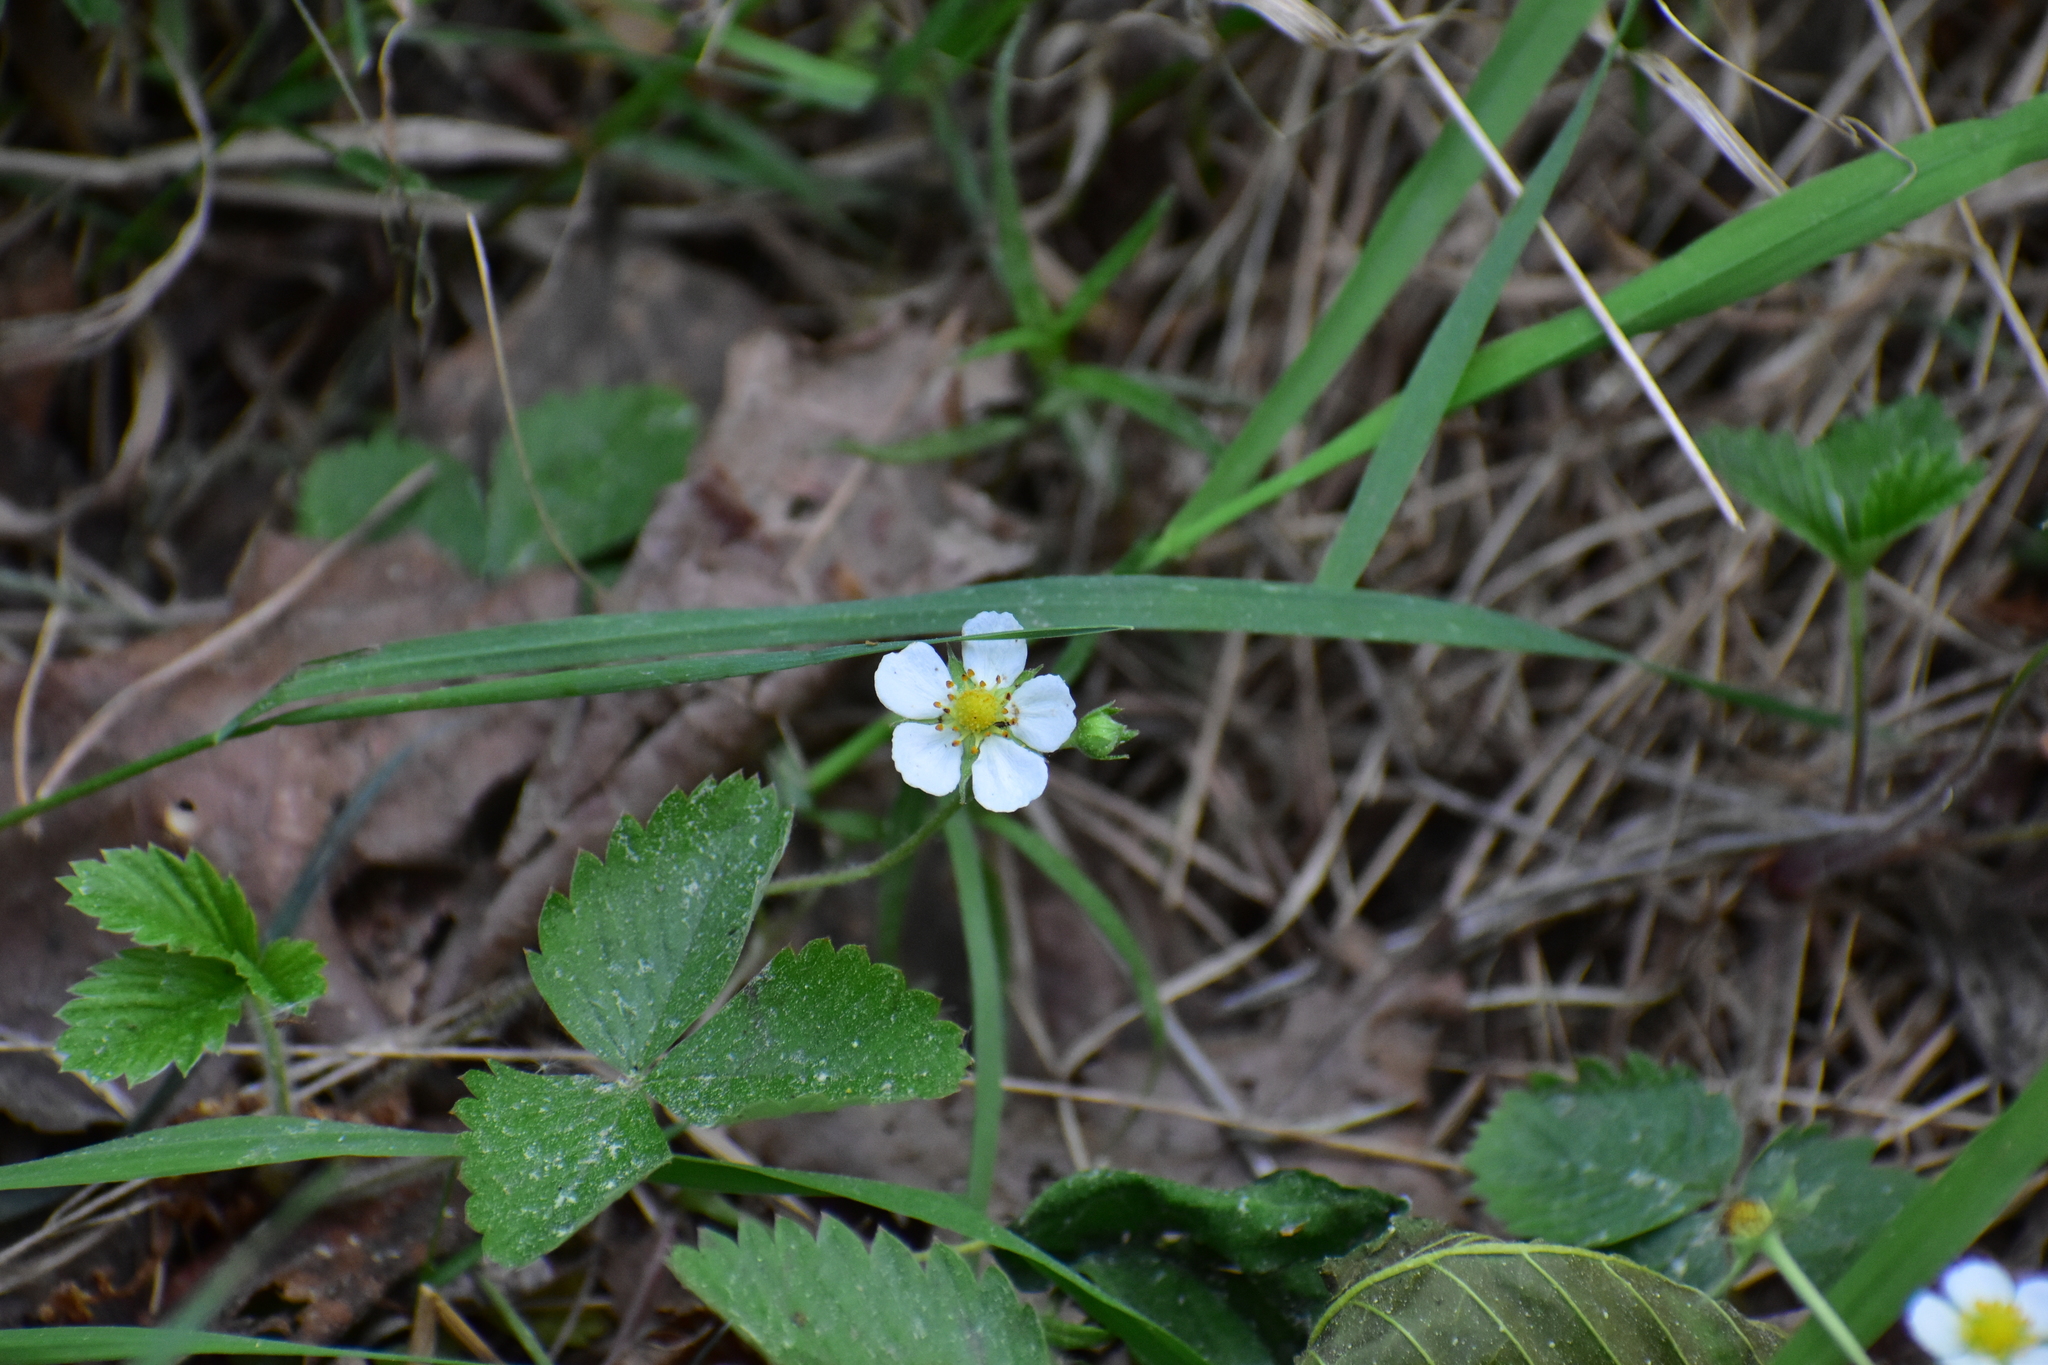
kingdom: Plantae
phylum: Tracheophyta
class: Magnoliopsida
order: Rosales
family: Rosaceae
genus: Fragaria
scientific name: Fragaria vesca
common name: Wild strawberry
